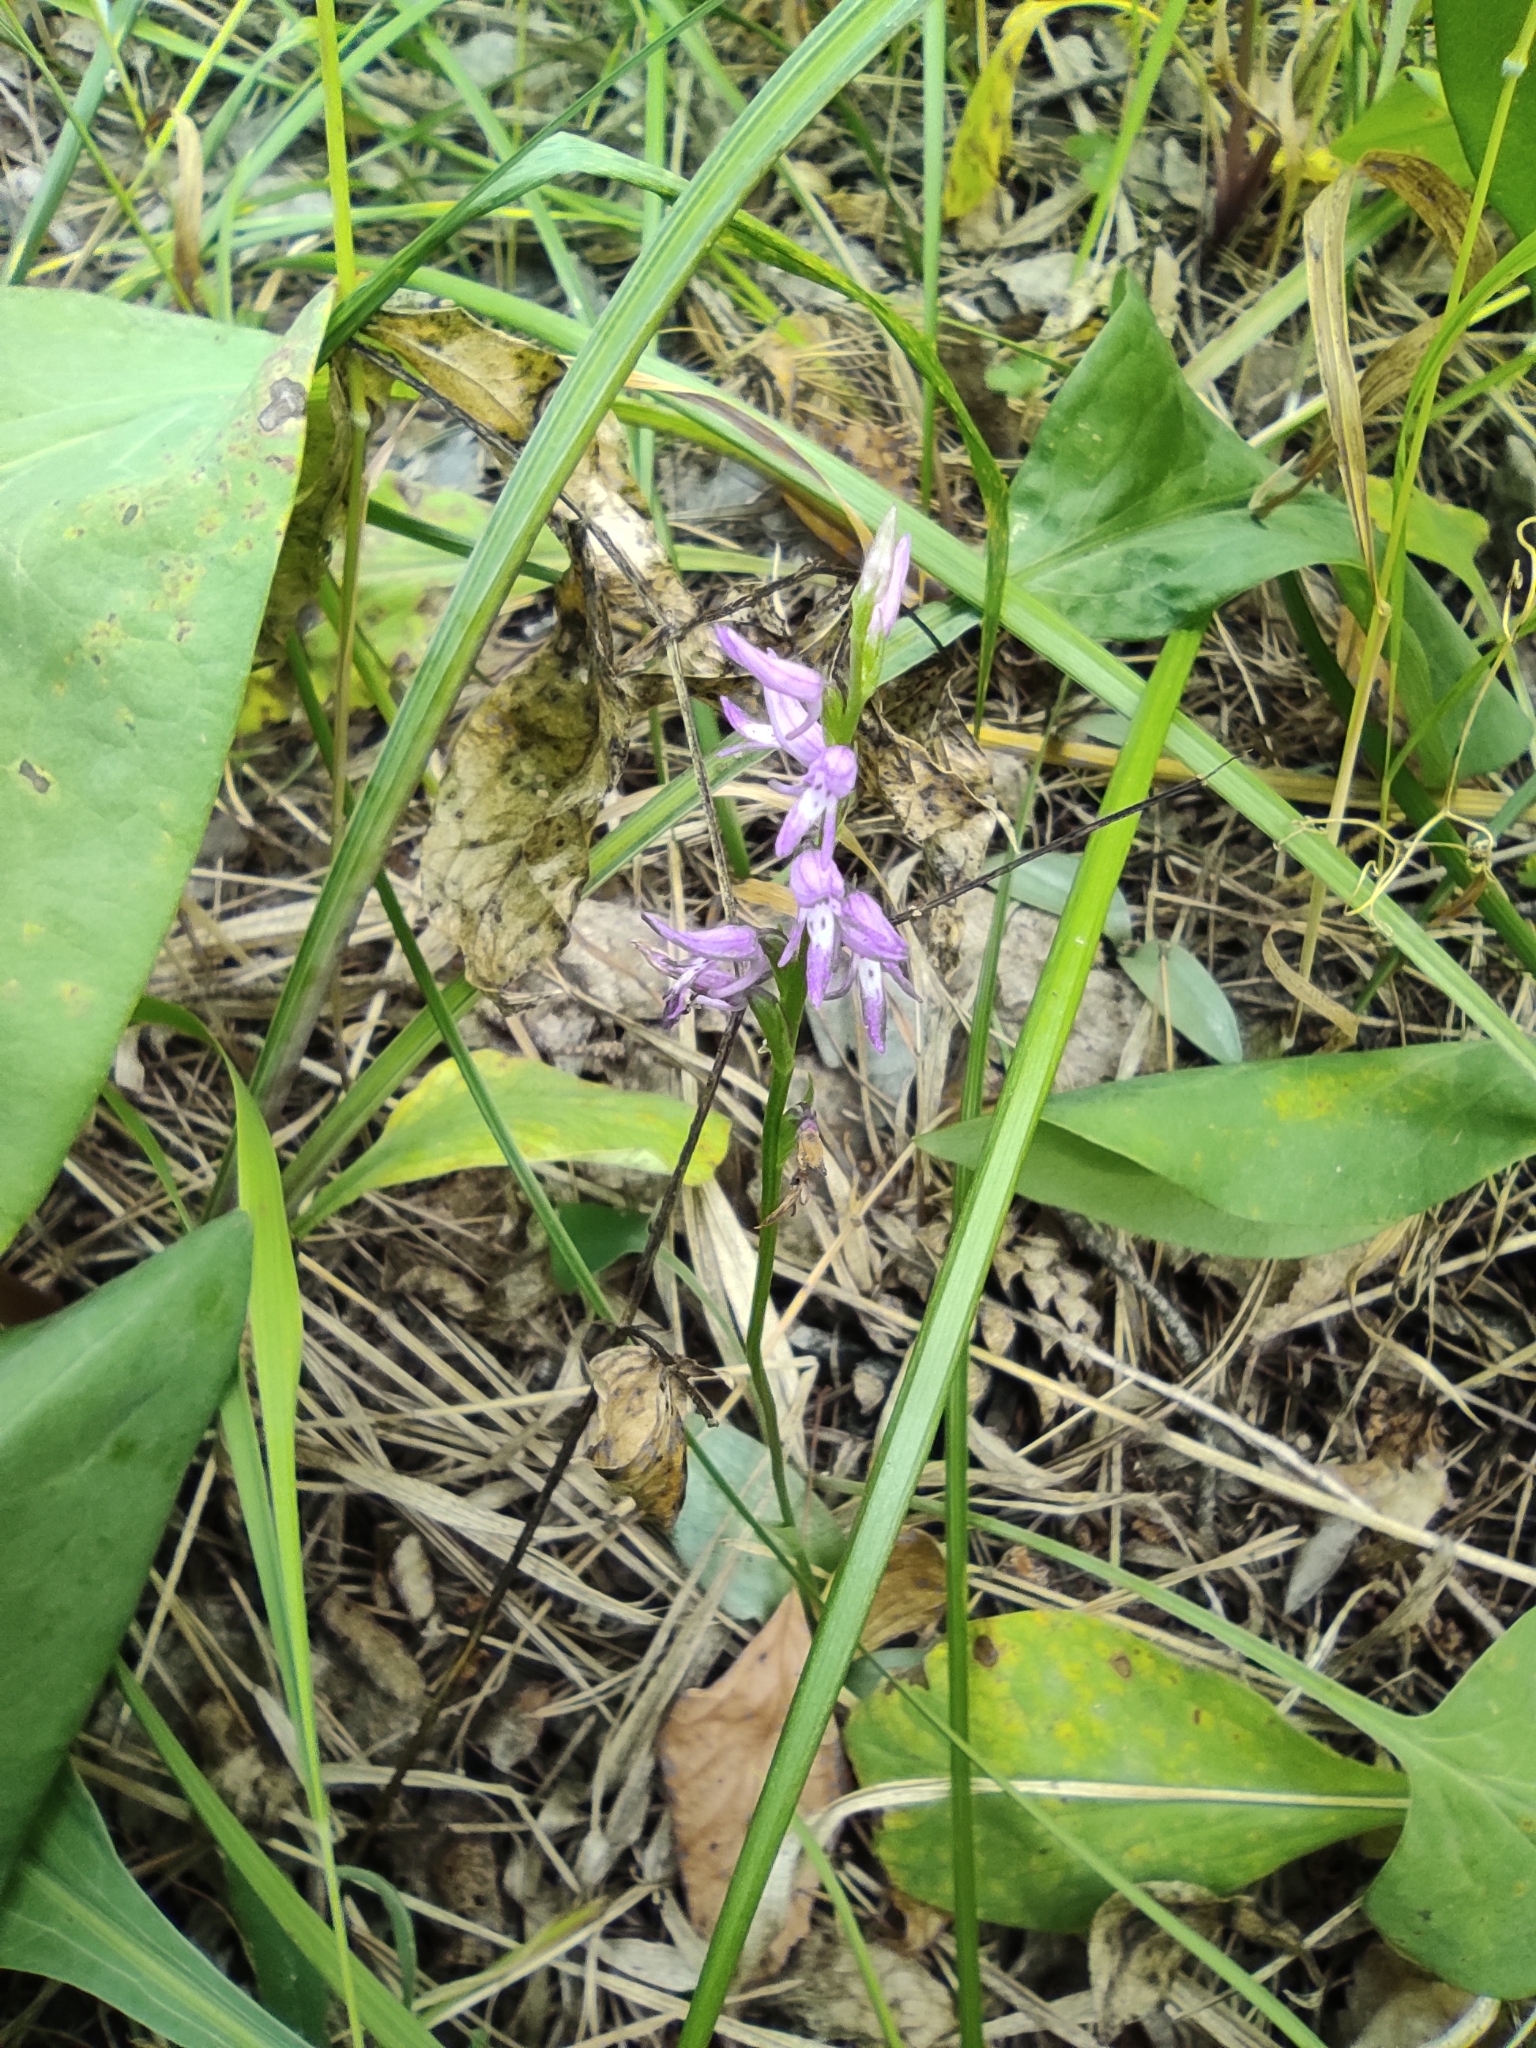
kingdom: Plantae
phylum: Tracheophyta
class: Liliopsida
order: Asparagales
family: Orchidaceae
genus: Hemipilia
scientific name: Hemipilia cucullata
